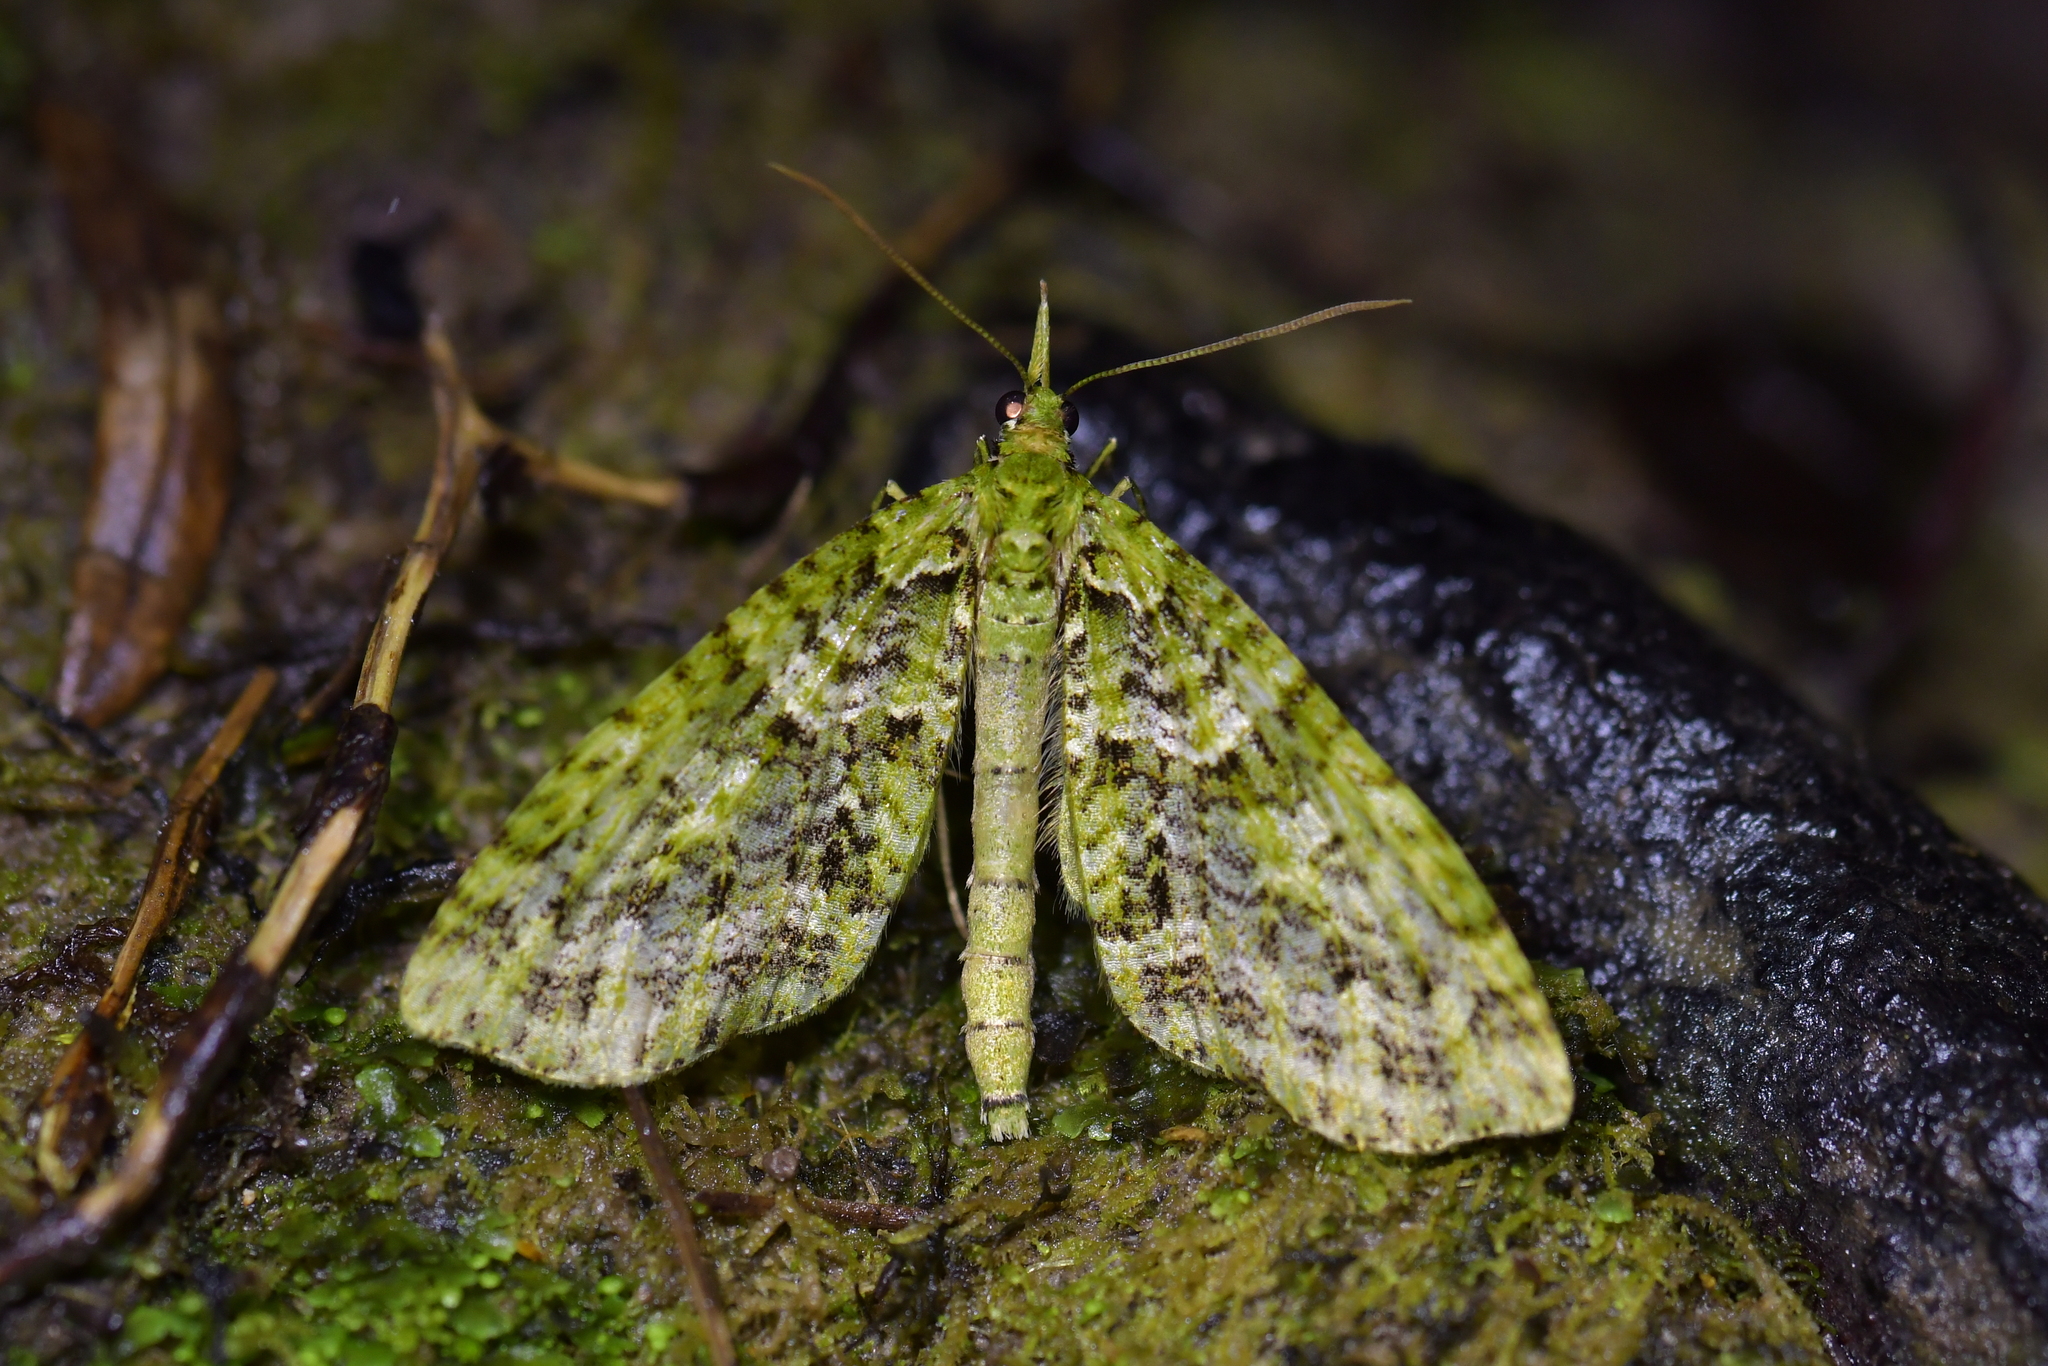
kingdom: Animalia
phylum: Arthropoda
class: Insecta
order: Lepidoptera
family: Geometridae
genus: Tatosoma
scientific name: Tatosoma tipulata
